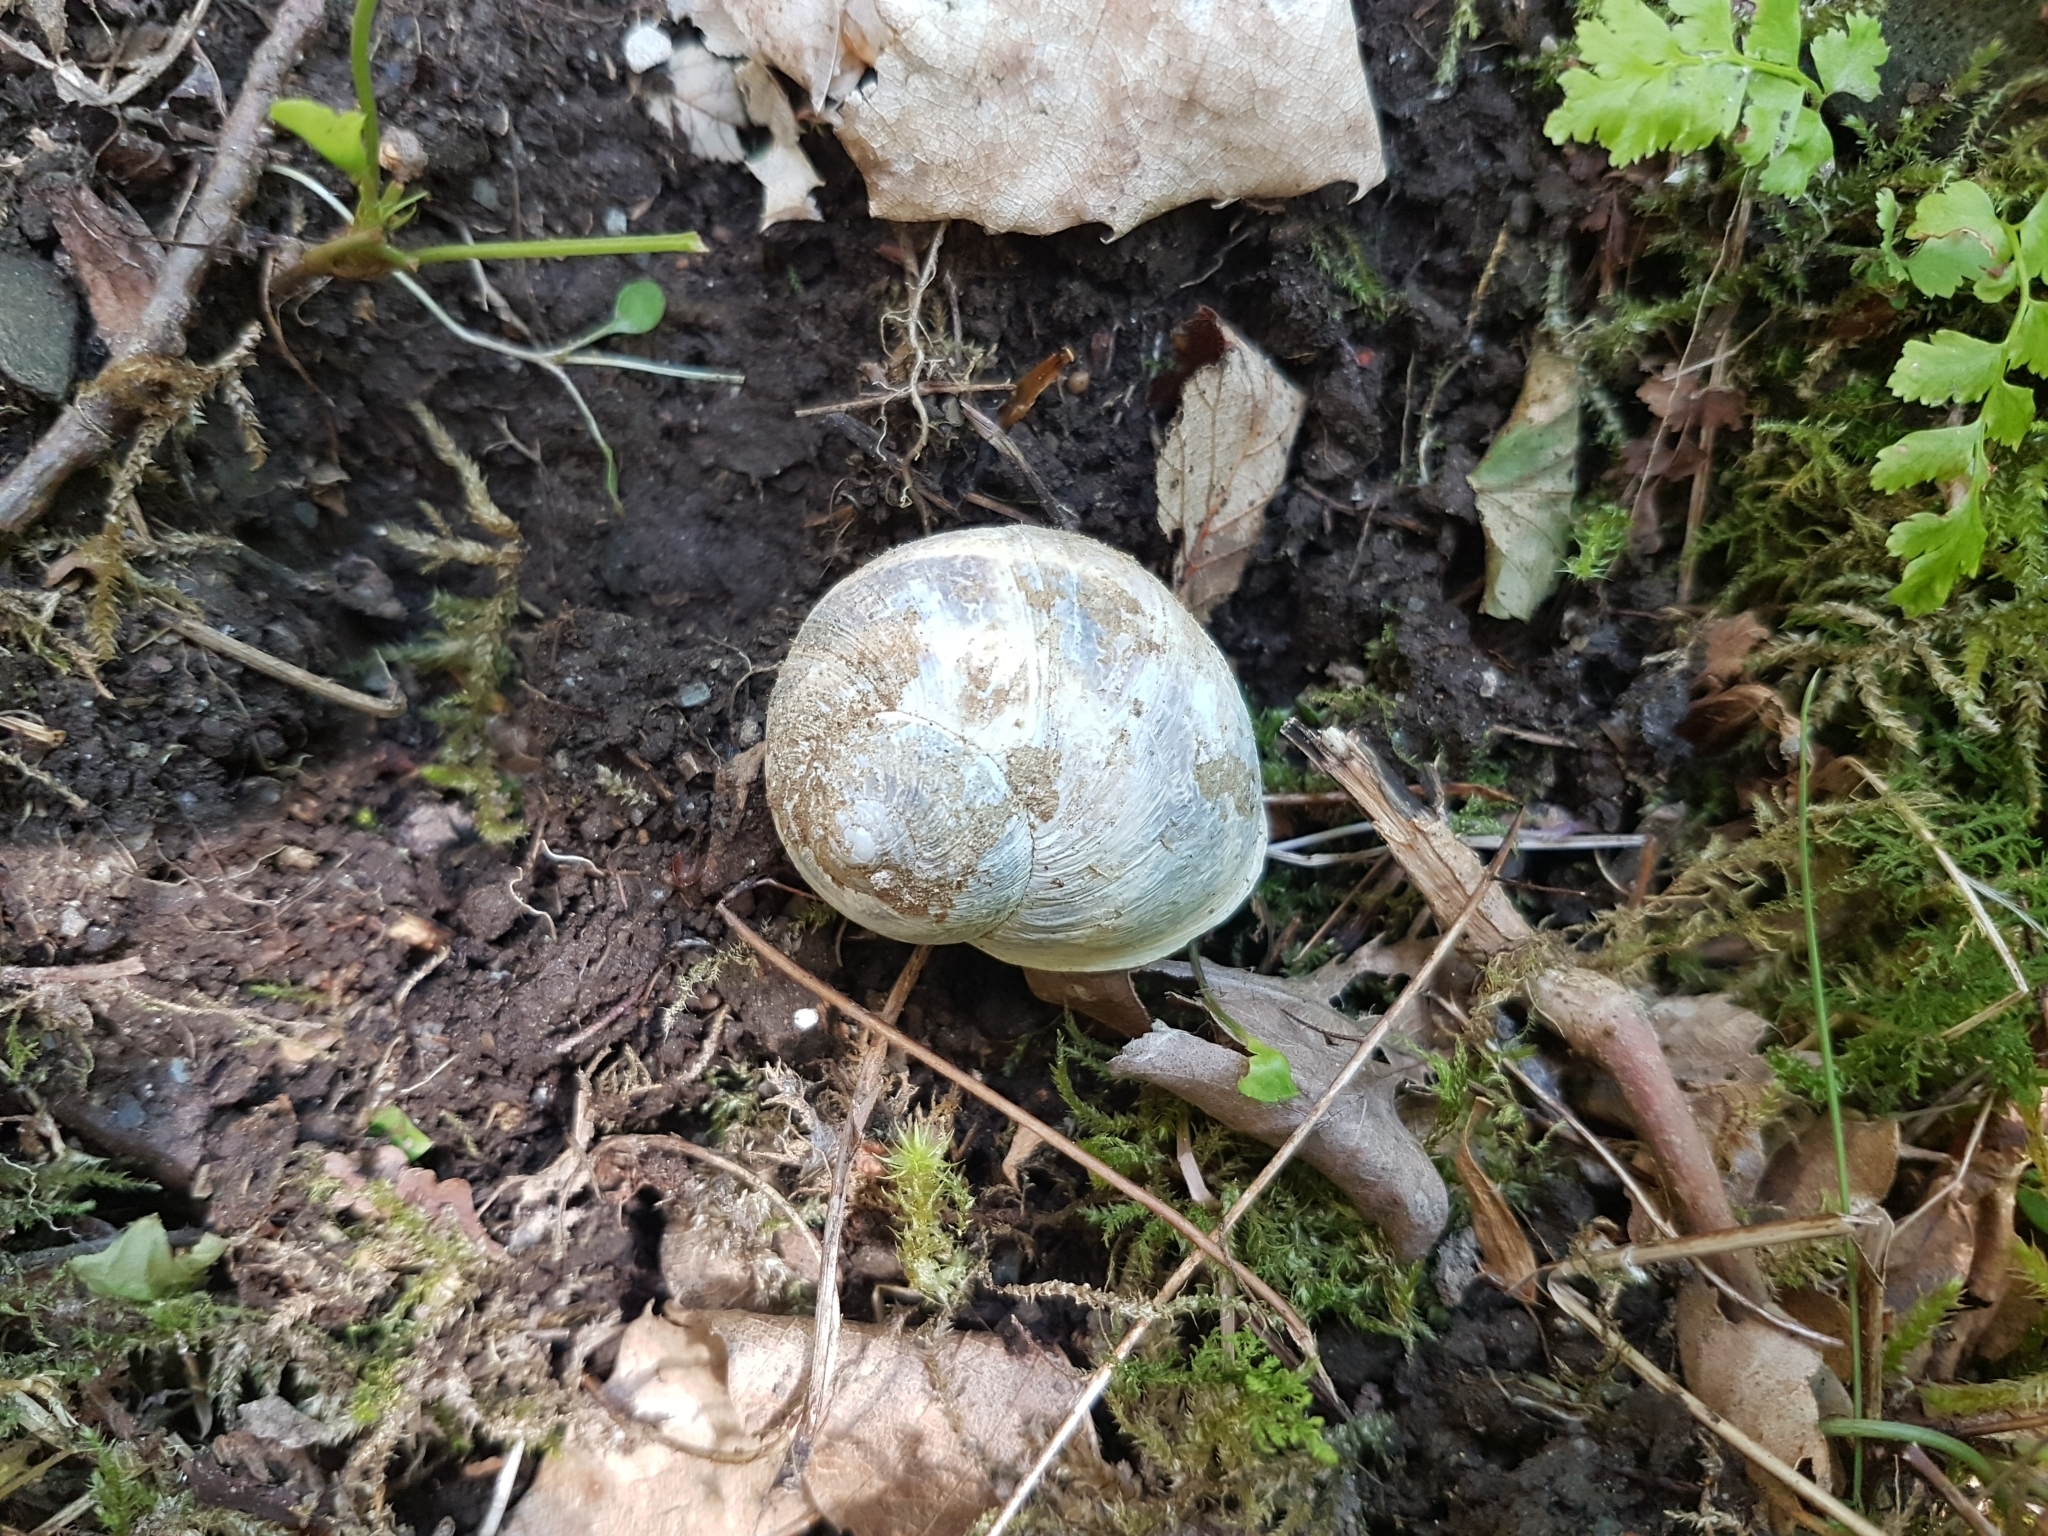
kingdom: Animalia
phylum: Mollusca
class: Gastropoda
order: Stylommatophora
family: Helicidae
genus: Cornu
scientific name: Cornu aspersum
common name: Brown garden snail
